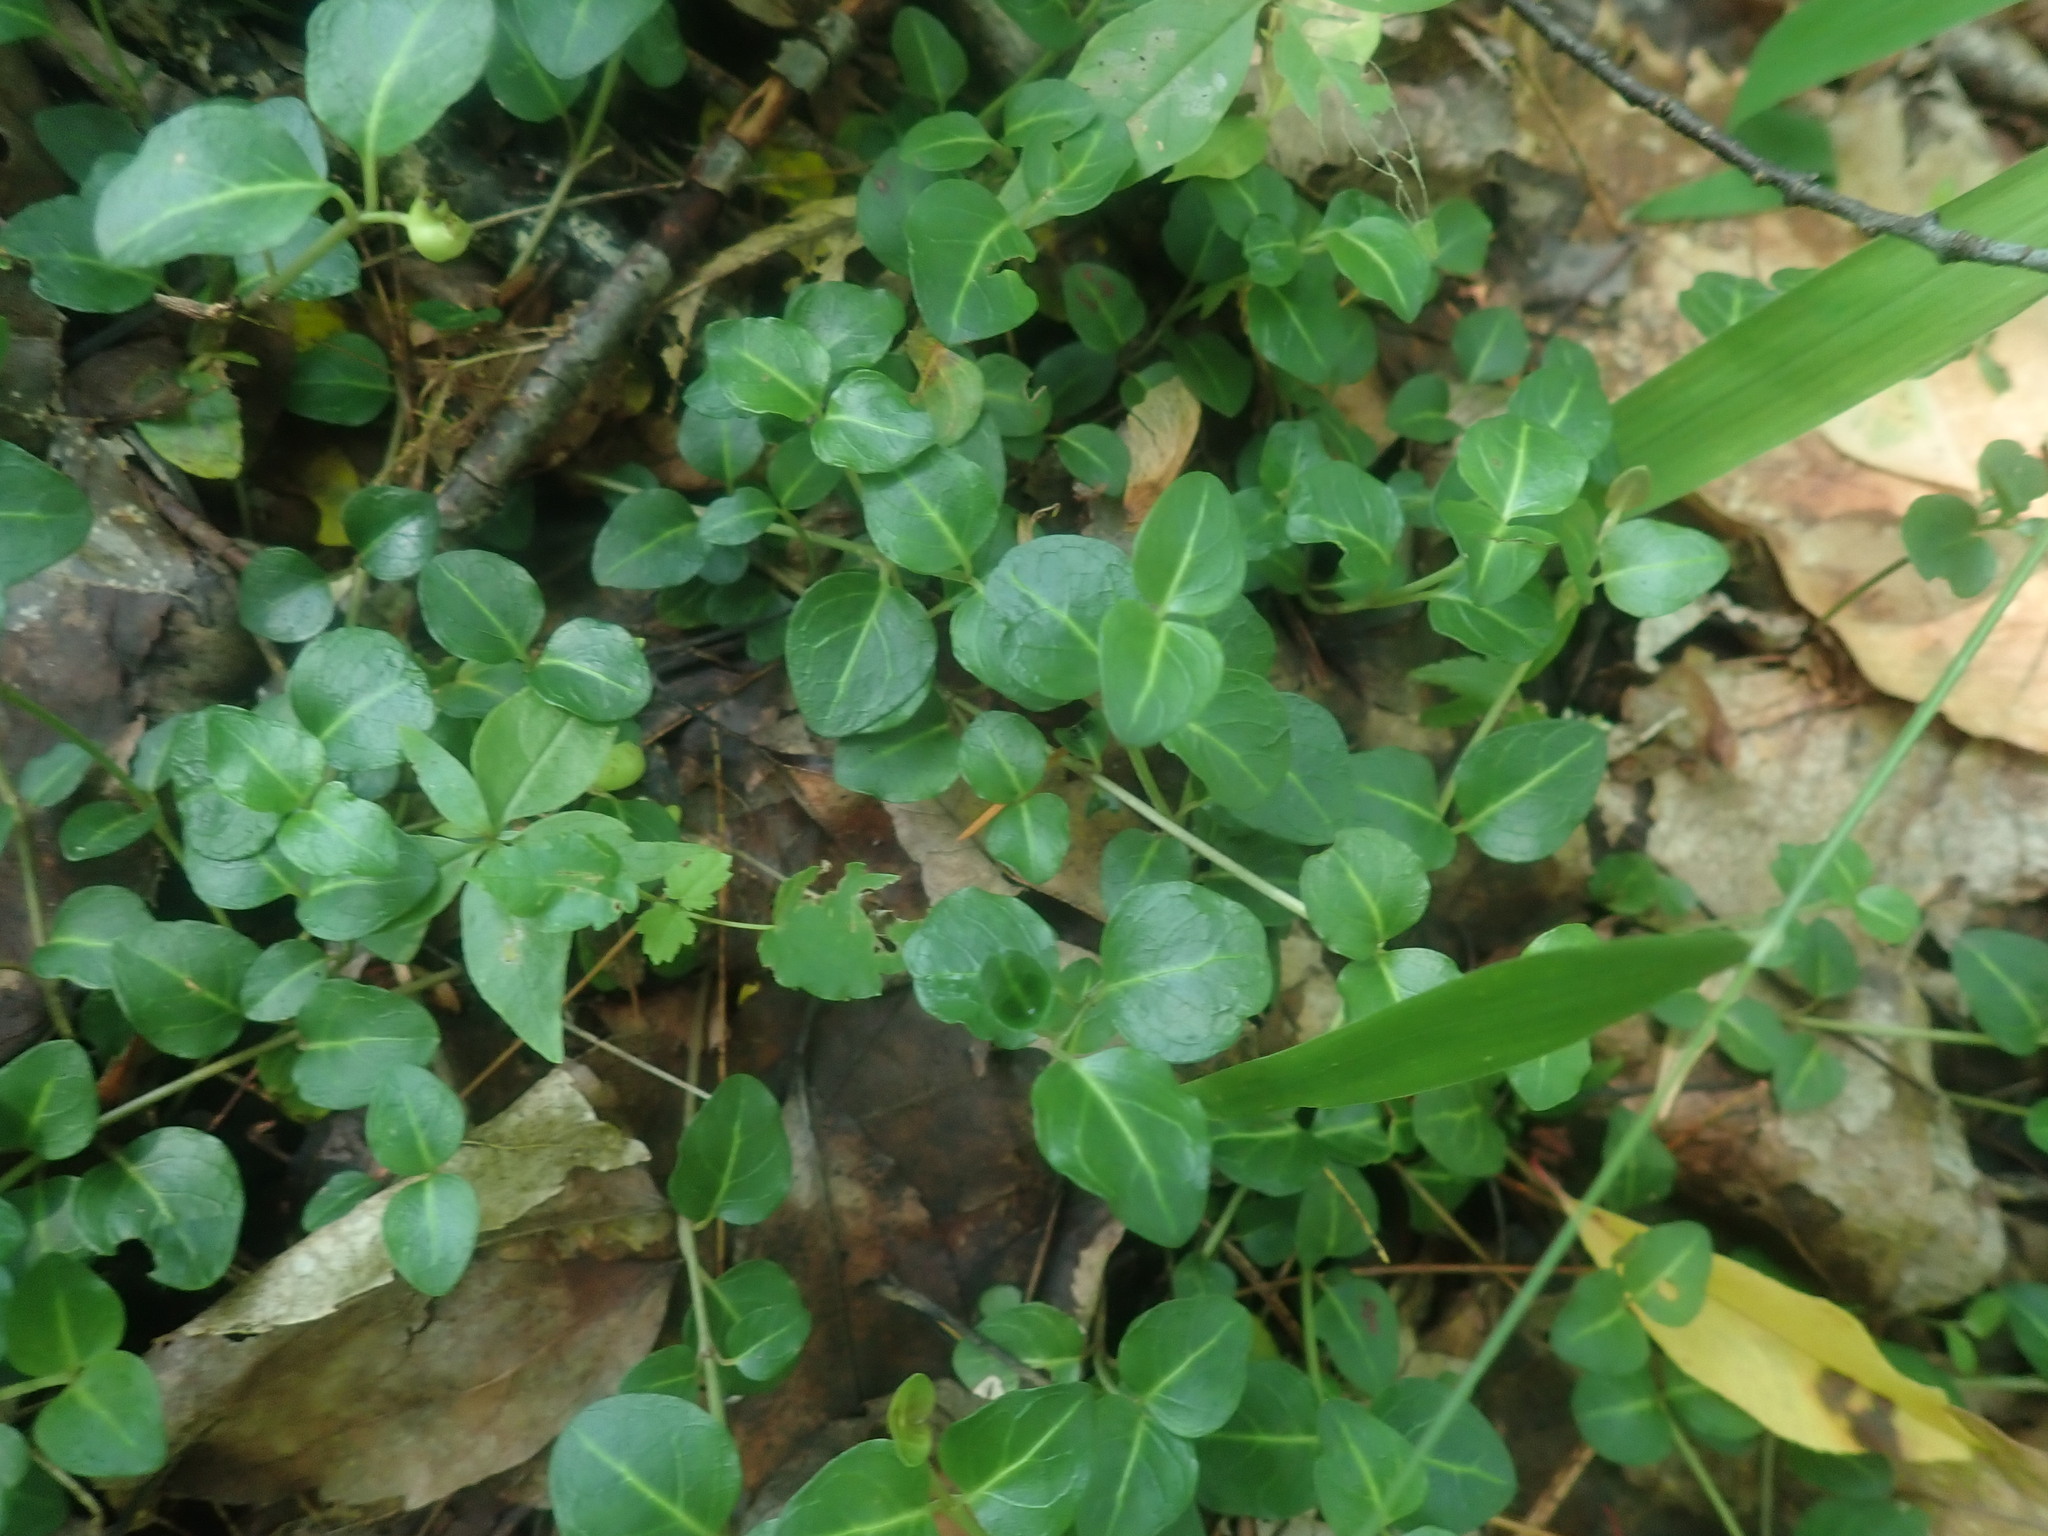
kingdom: Plantae
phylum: Tracheophyta
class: Magnoliopsida
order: Gentianales
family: Rubiaceae
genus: Mitchella
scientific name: Mitchella repens
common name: Partridge-berry
